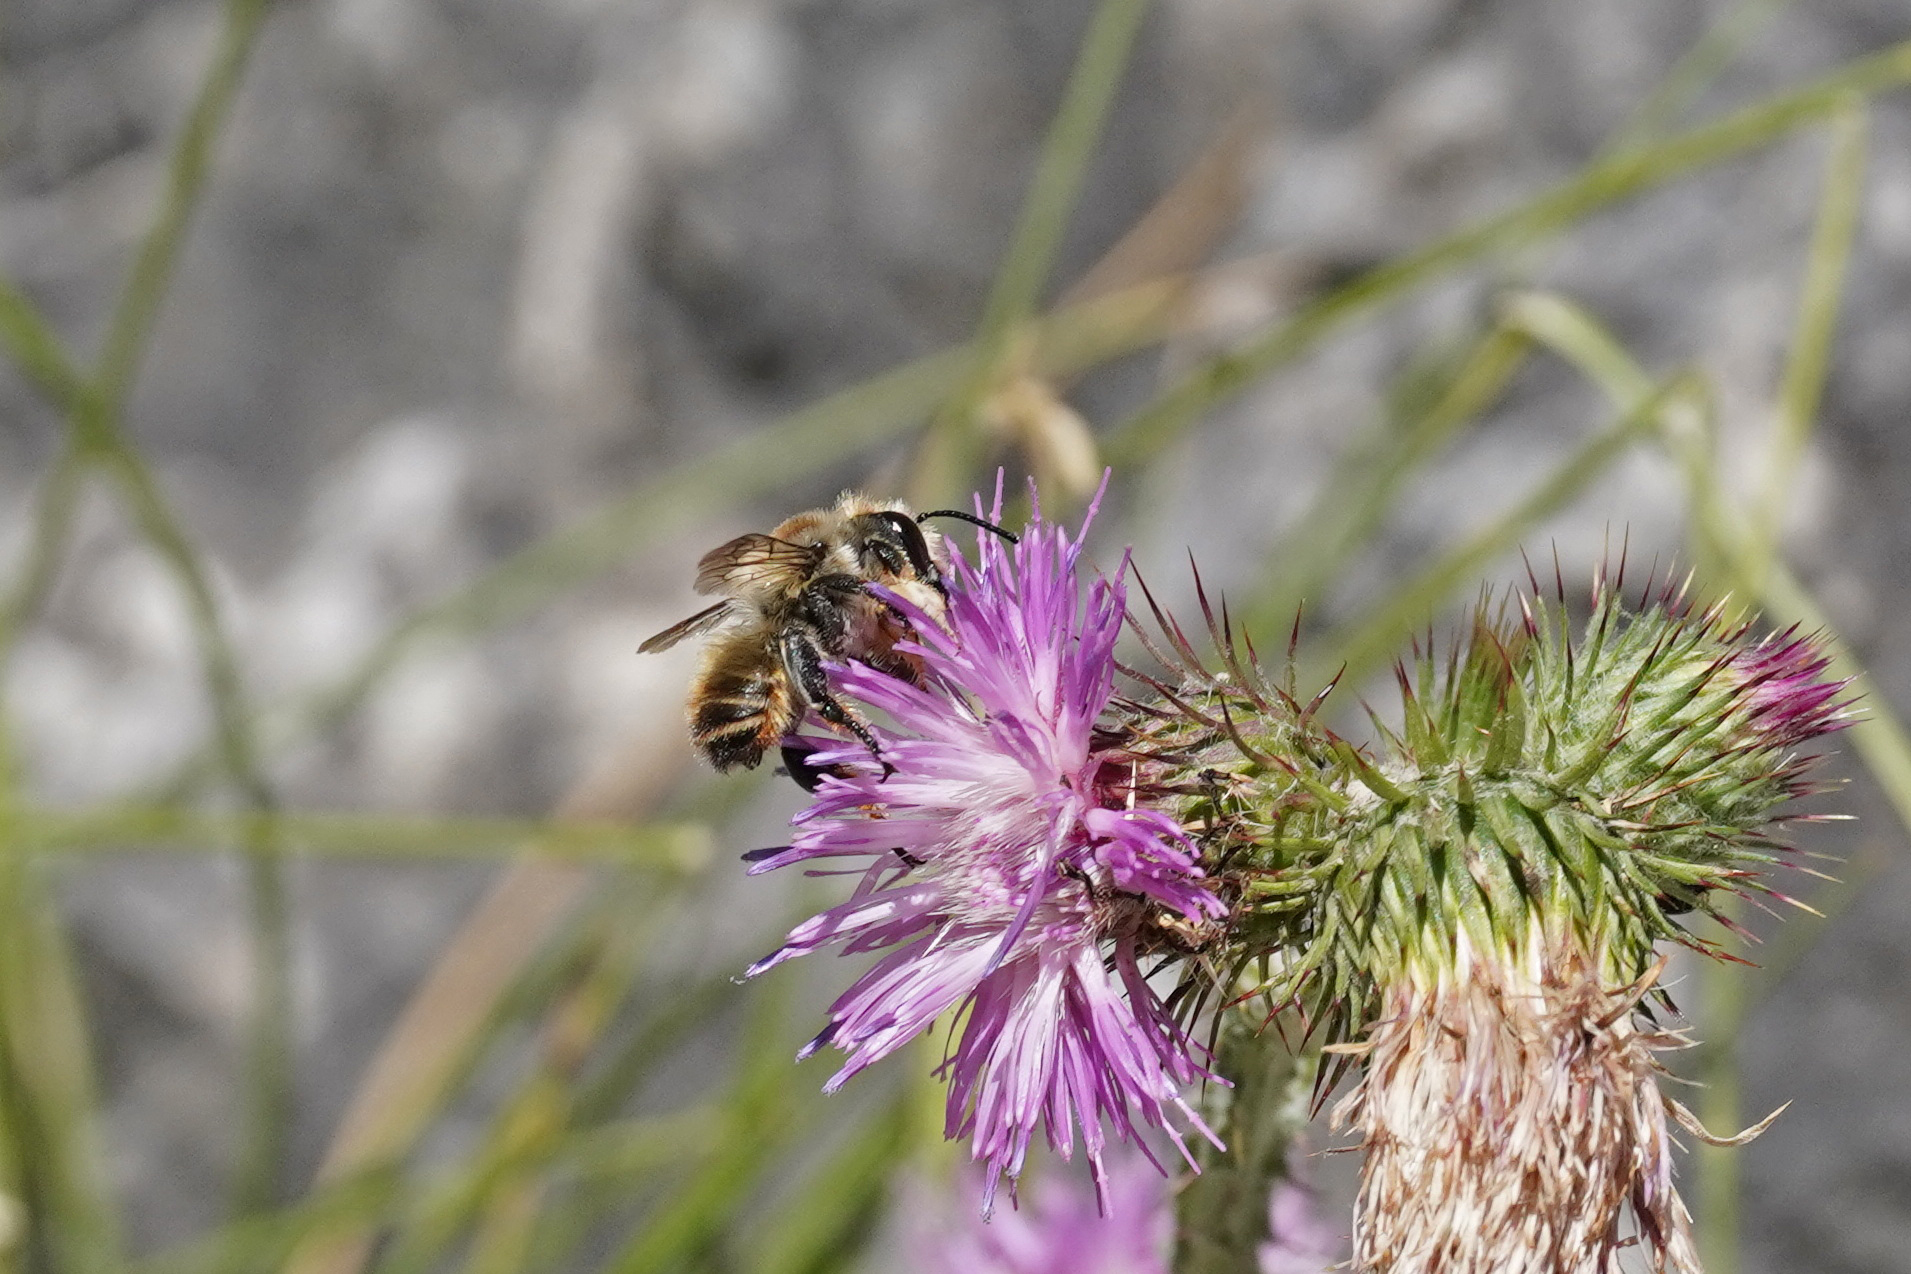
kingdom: Animalia
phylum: Arthropoda
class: Insecta
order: Hymenoptera
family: Megachilidae
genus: Megachile
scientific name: Megachile lagopoda
